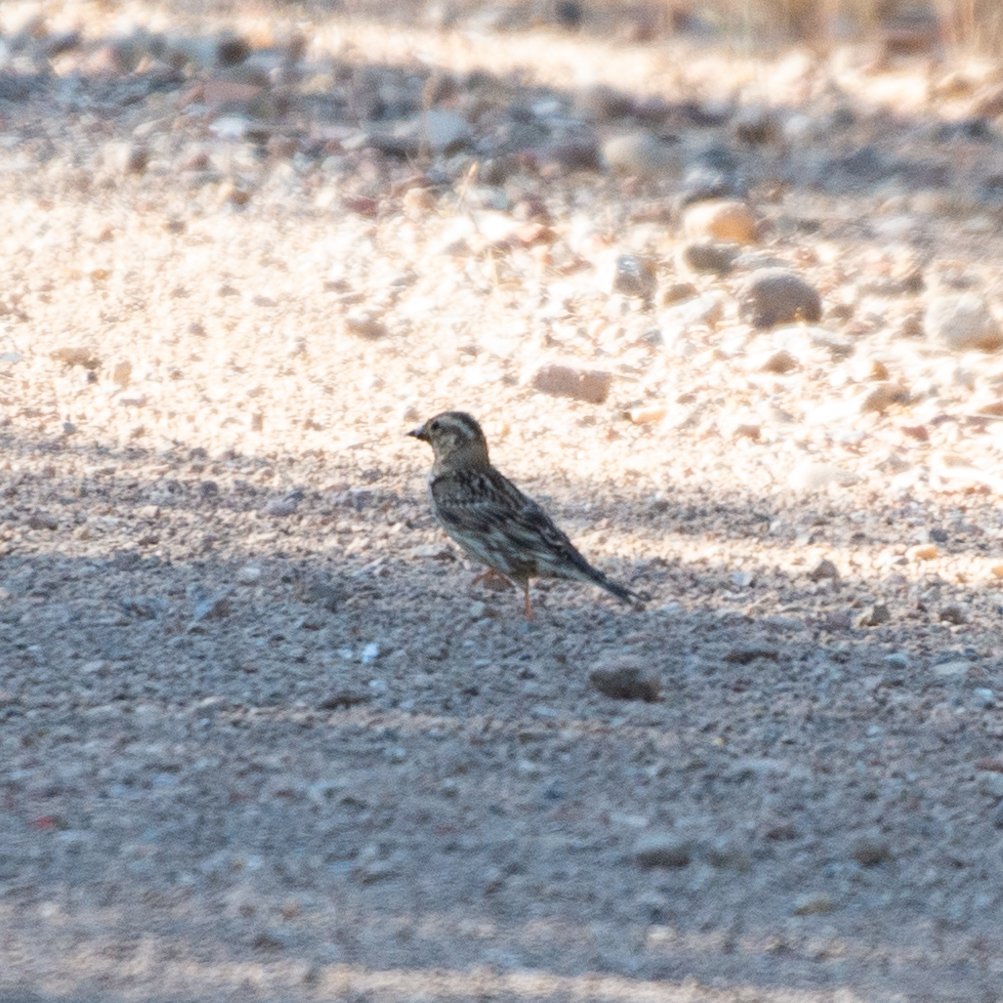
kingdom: Animalia
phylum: Chordata
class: Aves
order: Passeriformes
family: Passeridae
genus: Petronia
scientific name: Petronia petronia
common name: Rock sparrow
